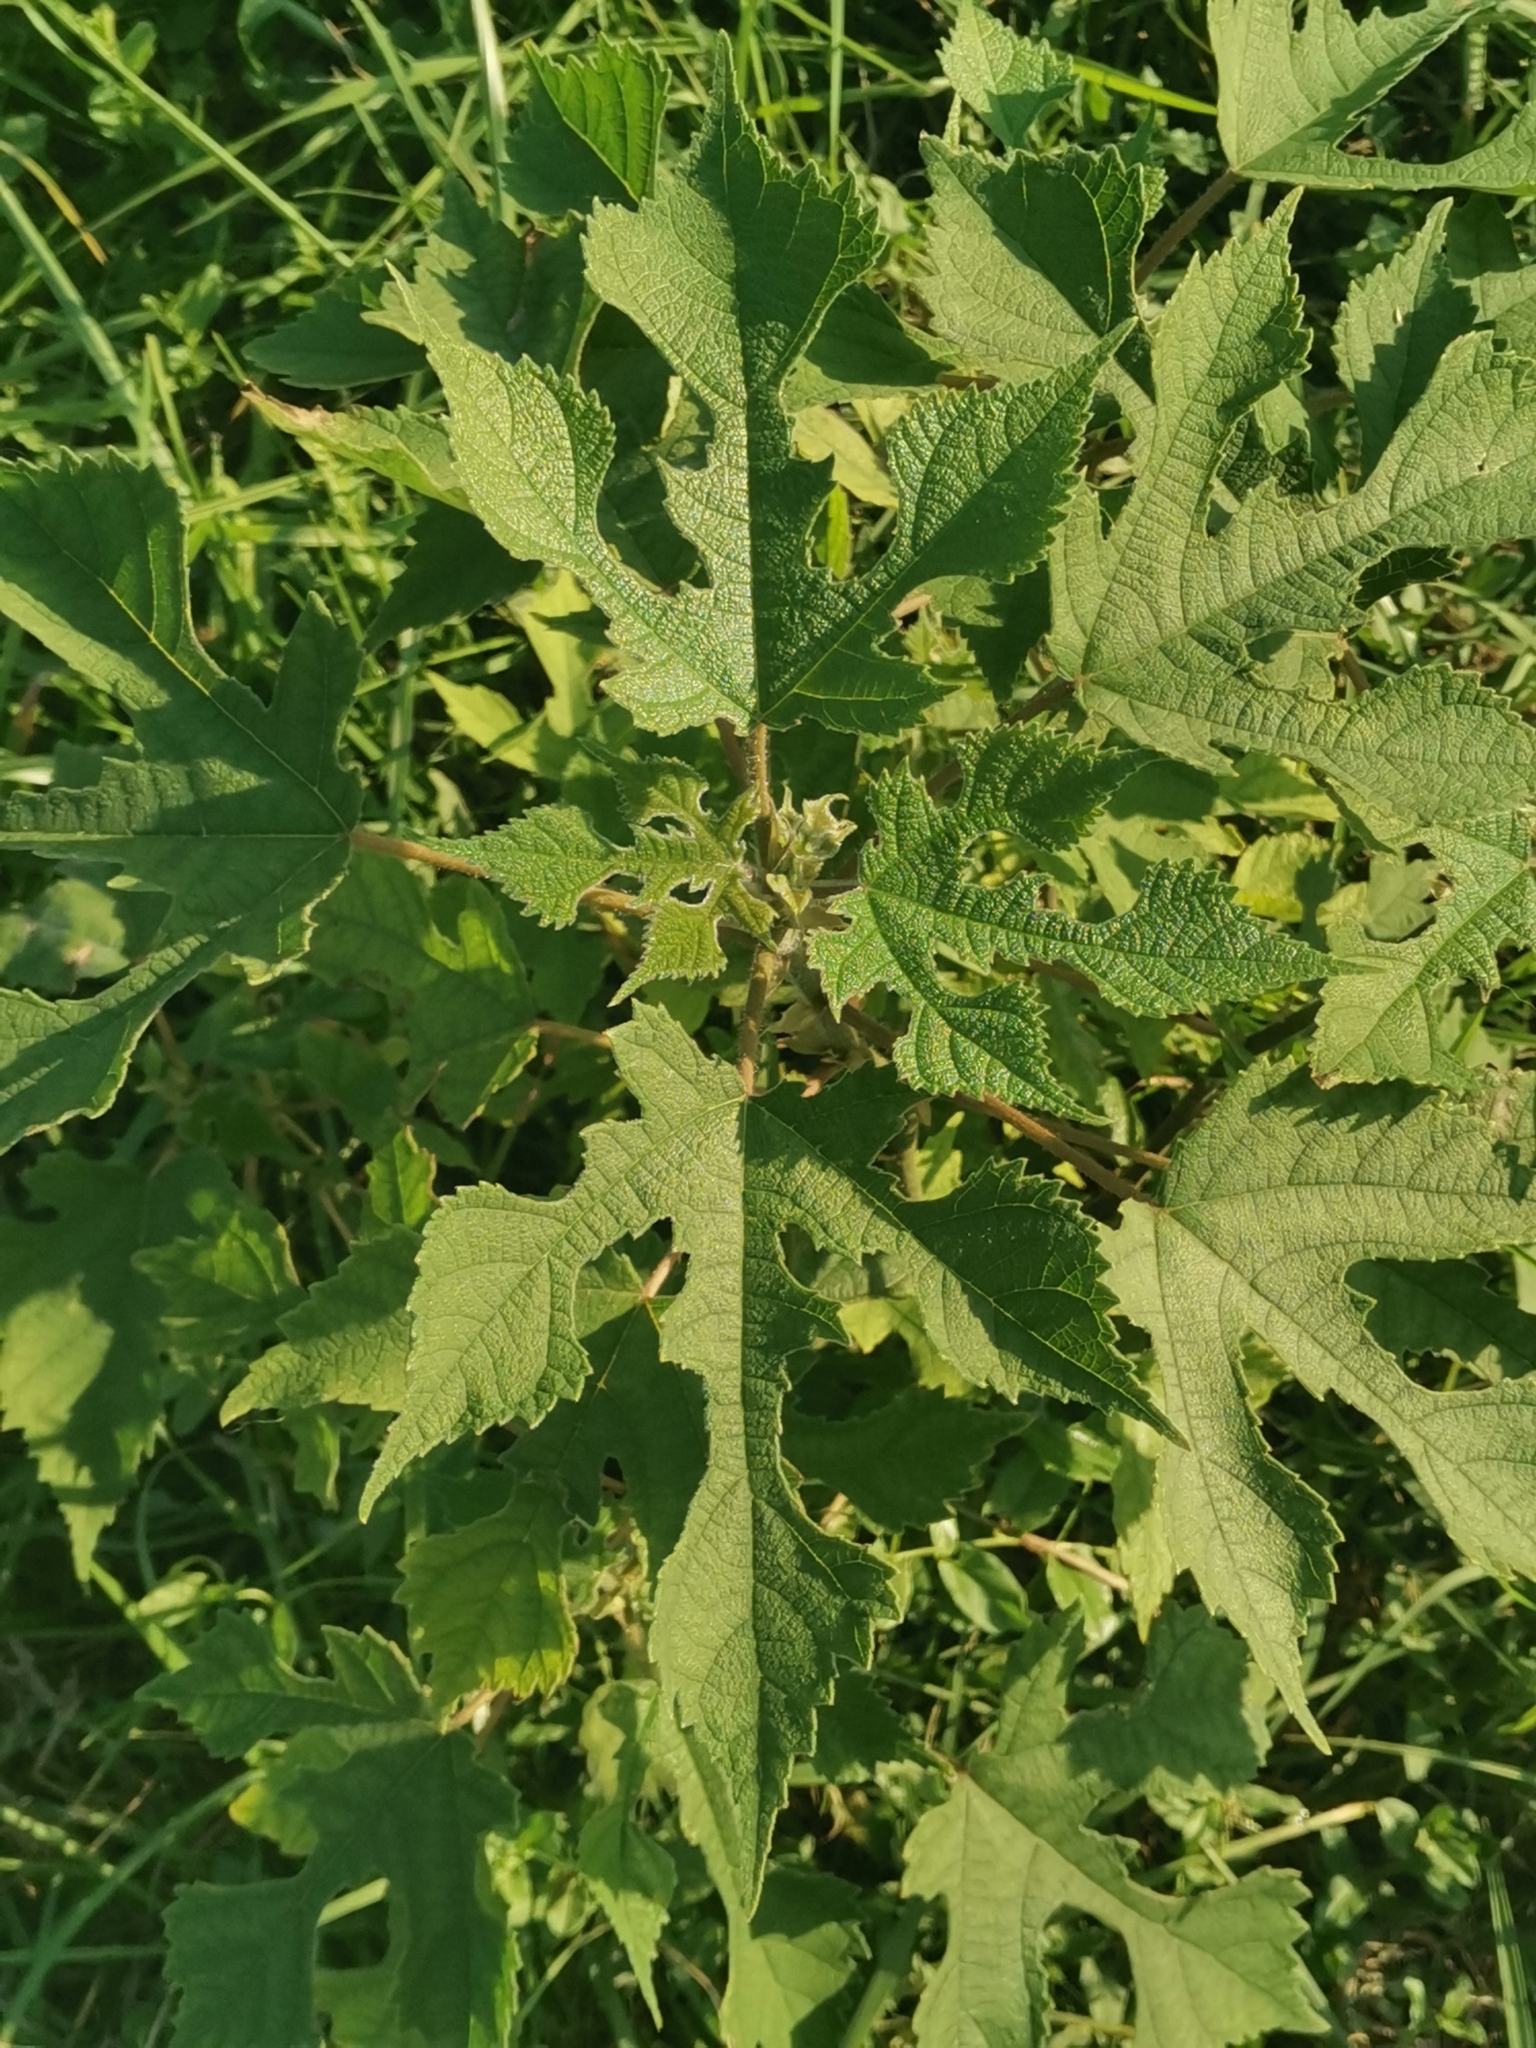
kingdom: Plantae
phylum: Tracheophyta
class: Magnoliopsida
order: Rosales
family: Moraceae
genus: Broussonetia
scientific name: Broussonetia papyrifera
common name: Paper mulberry
